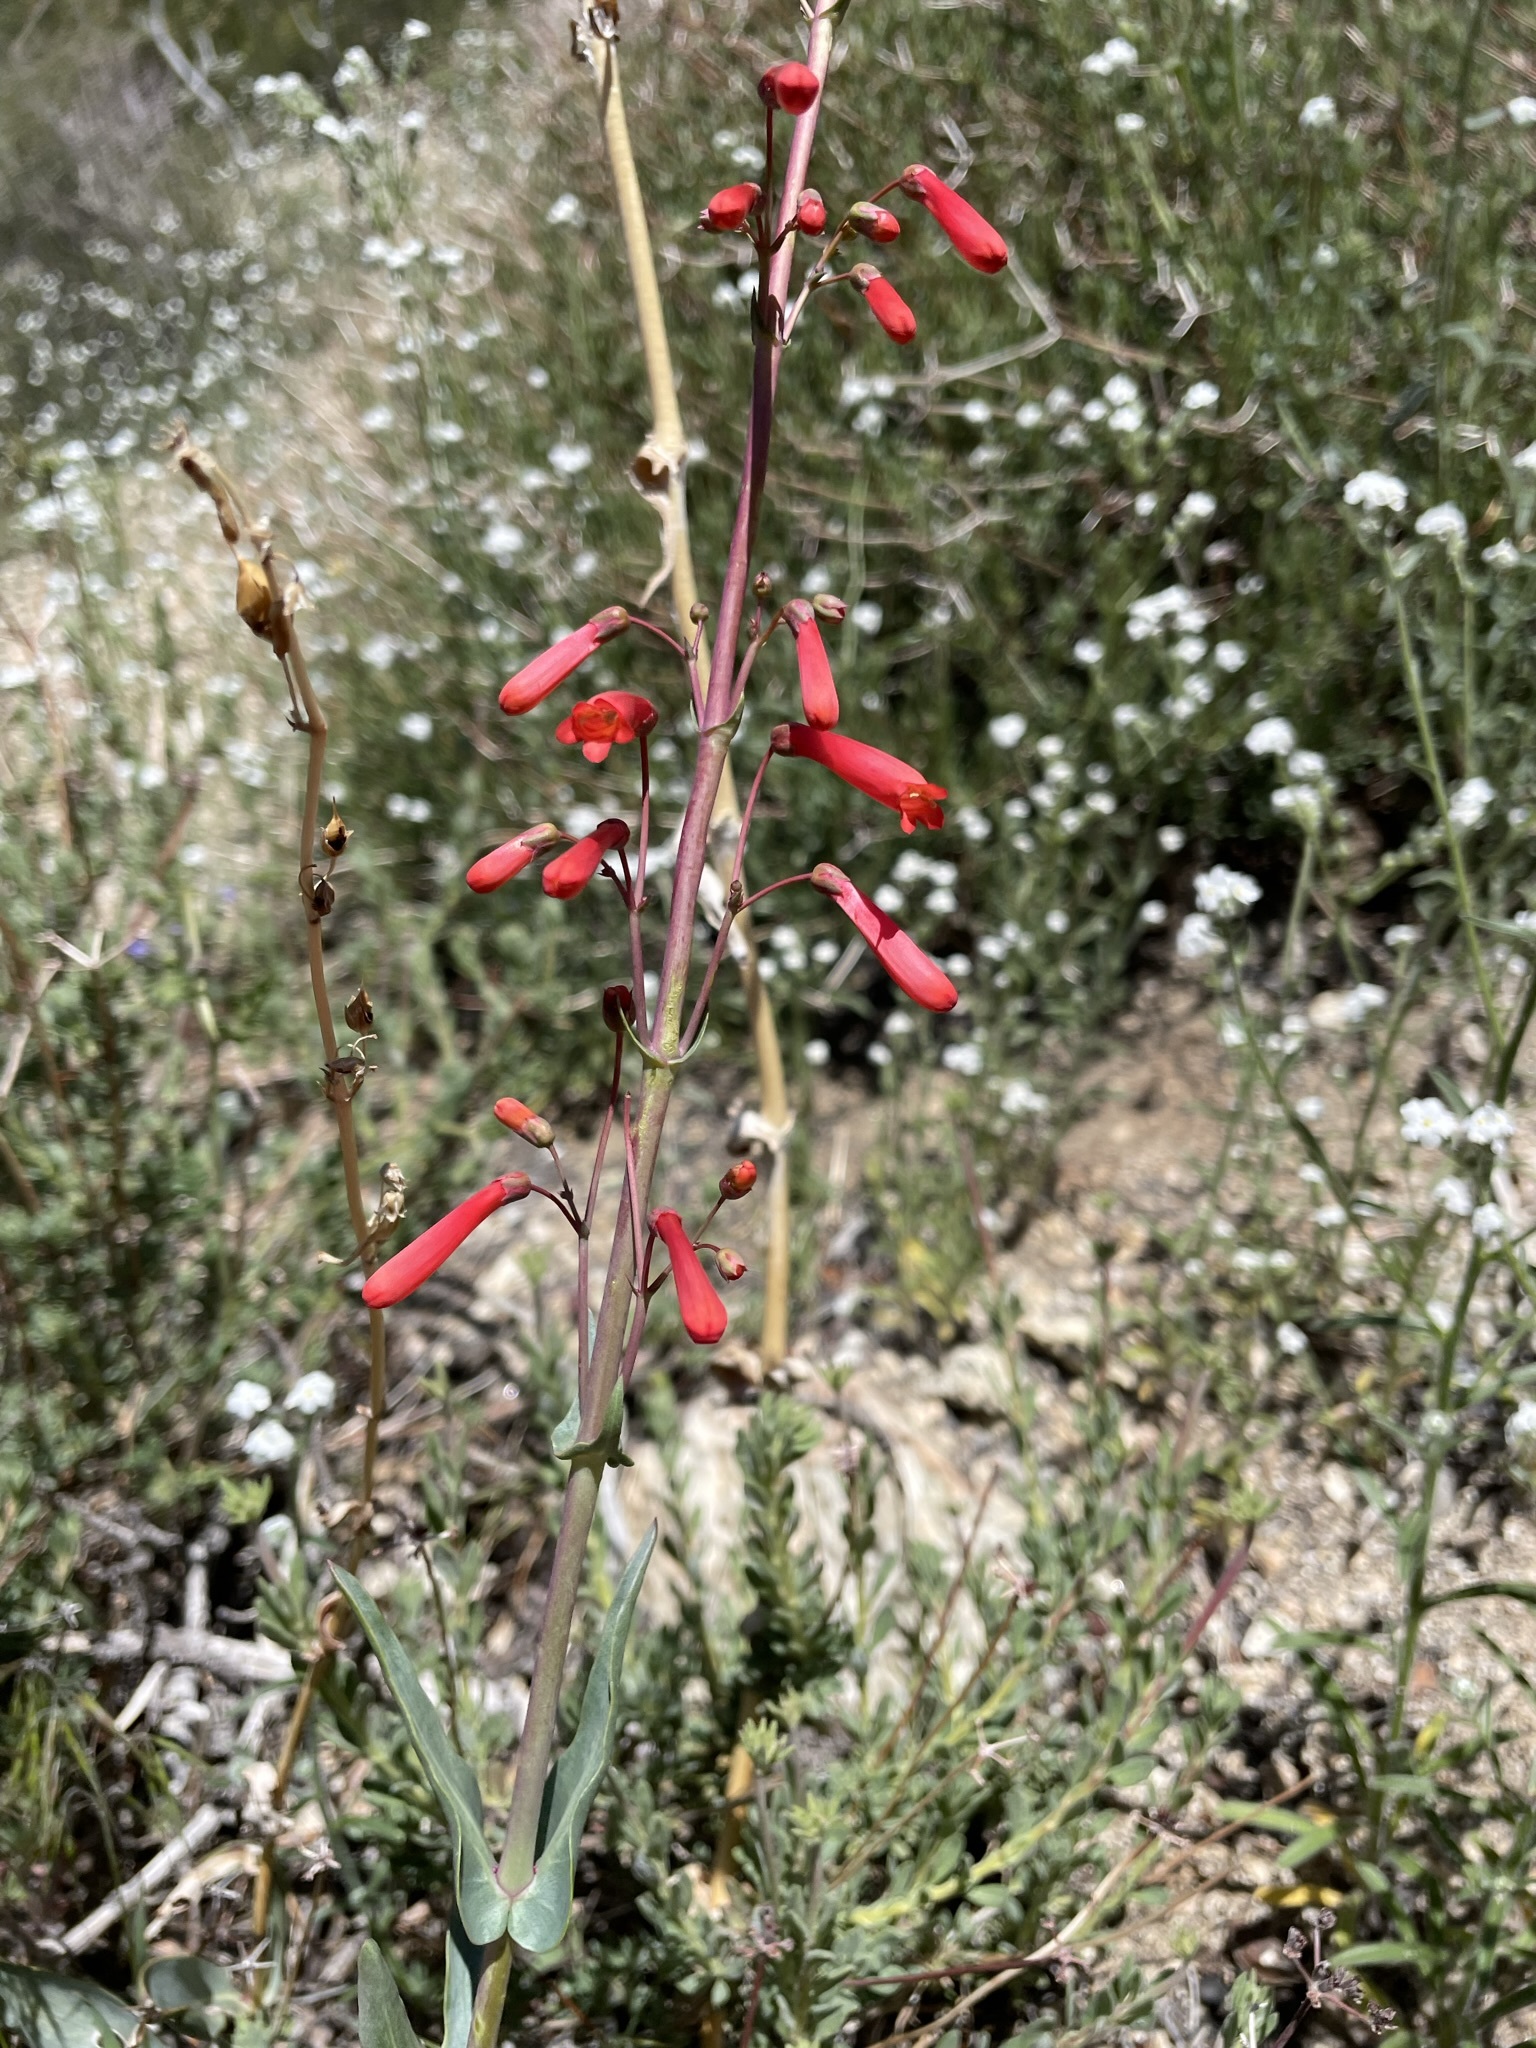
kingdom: Plantae
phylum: Tracheophyta
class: Magnoliopsida
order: Lamiales
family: Plantaginaceae
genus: Penstemon
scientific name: Penstemon centranthifolius
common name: Scarlet bugler
